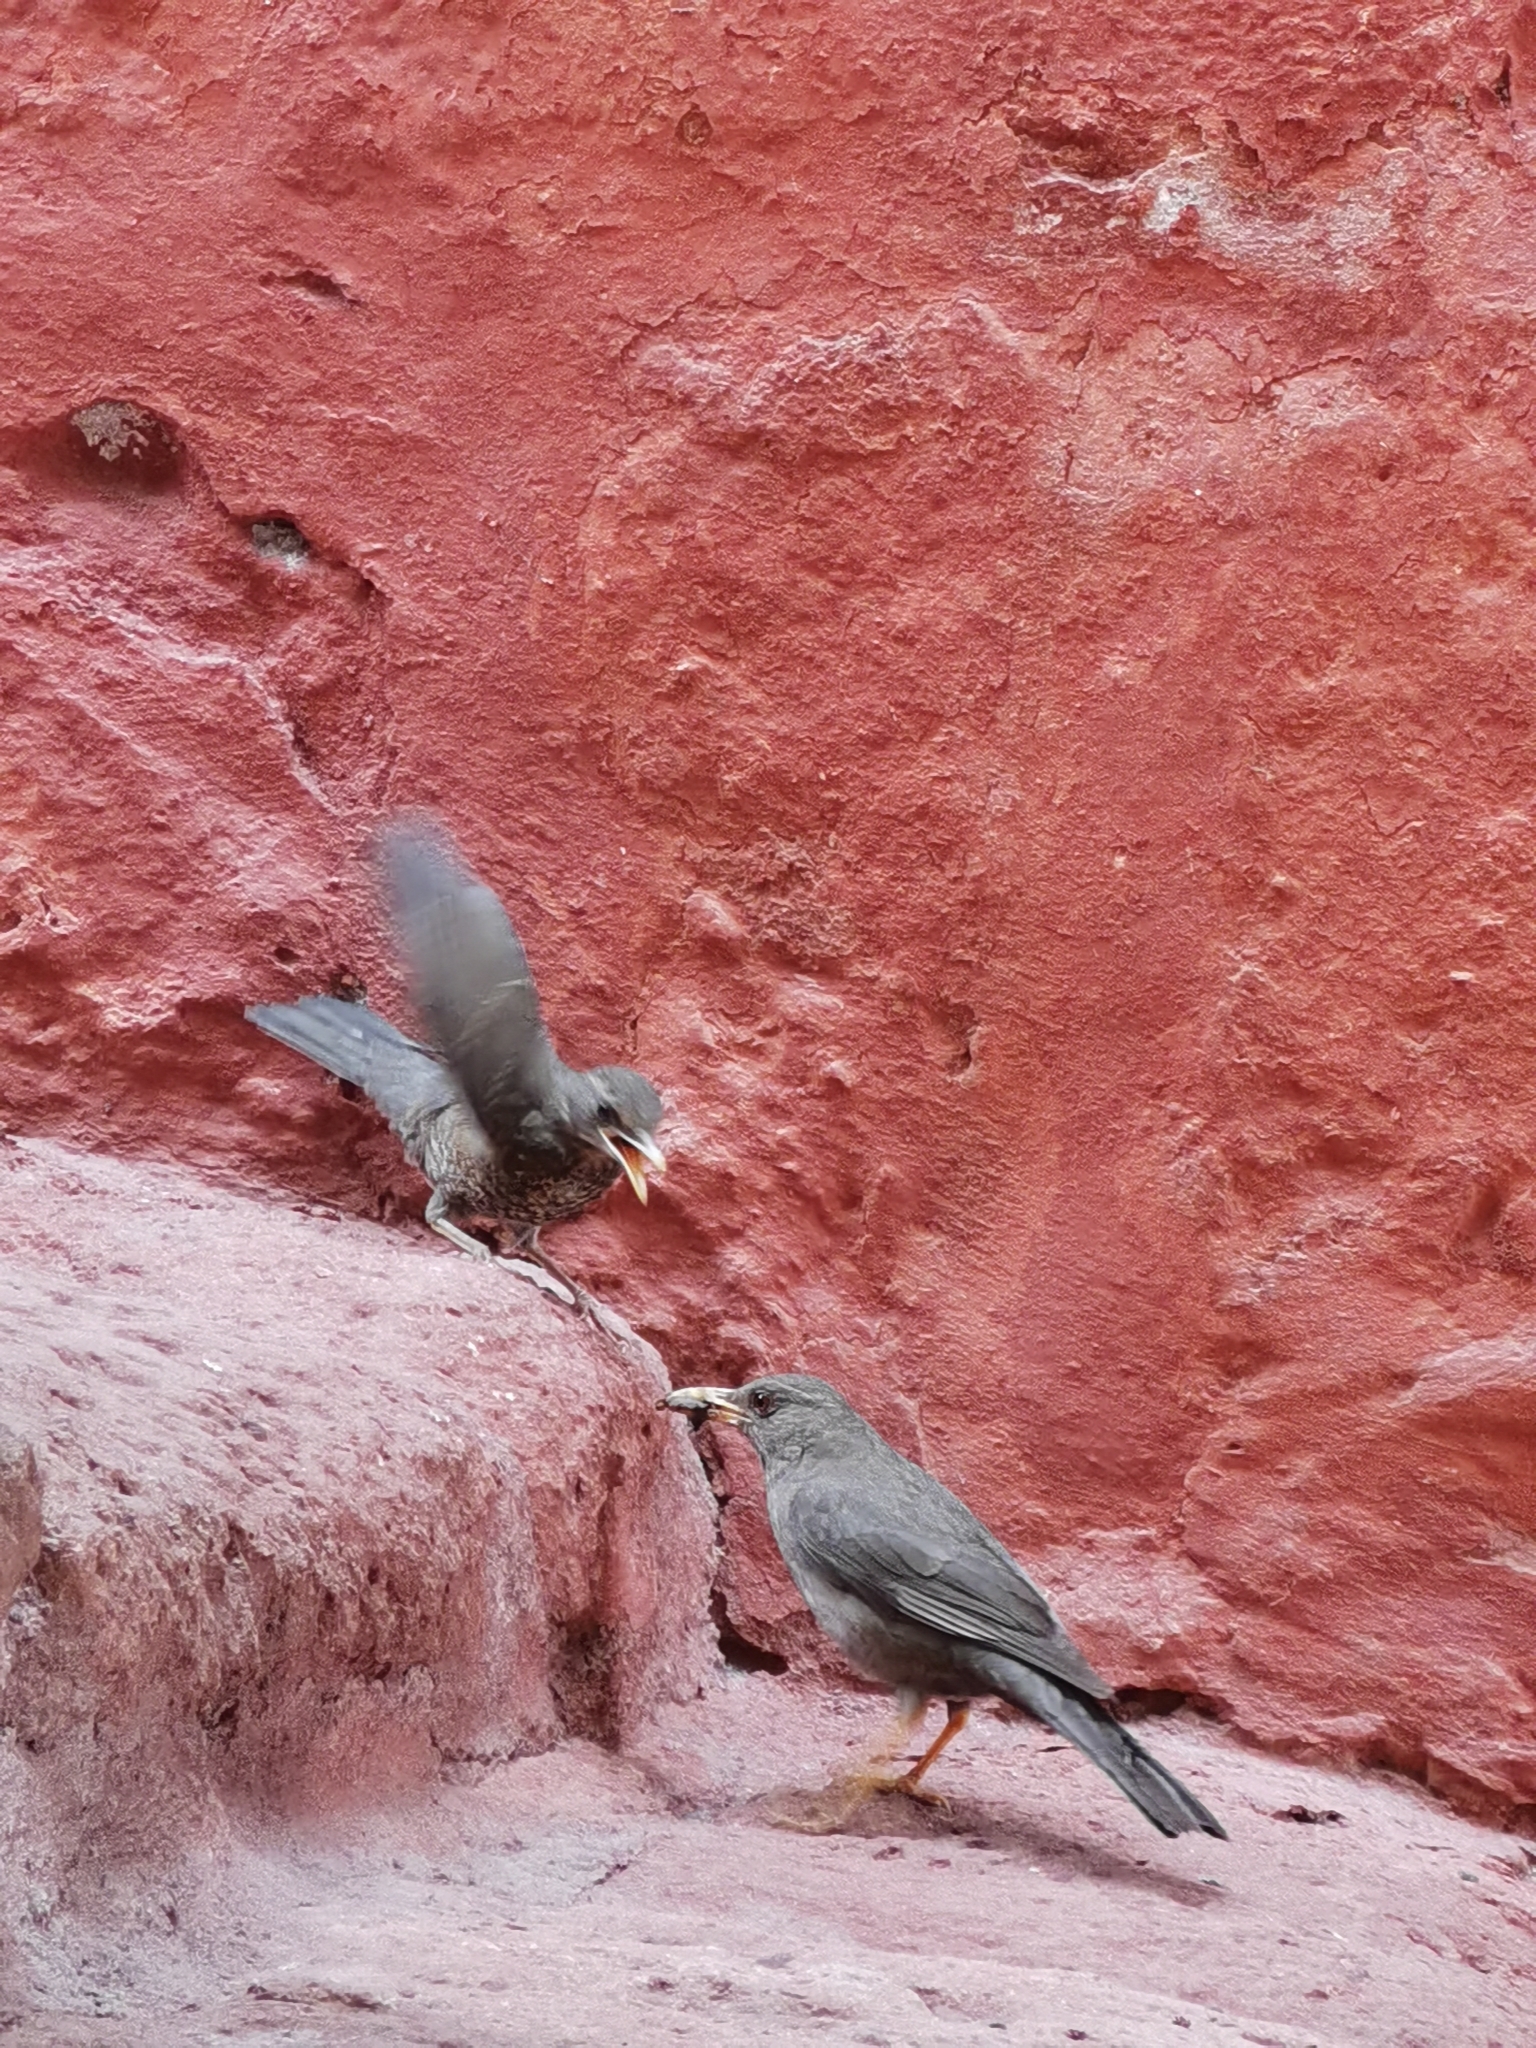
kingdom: Animalia
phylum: Chordata
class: Aves
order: Passeriformes
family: Turdidae
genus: Turdus
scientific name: Turdus chiguanco
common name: Chiguanco thrush
